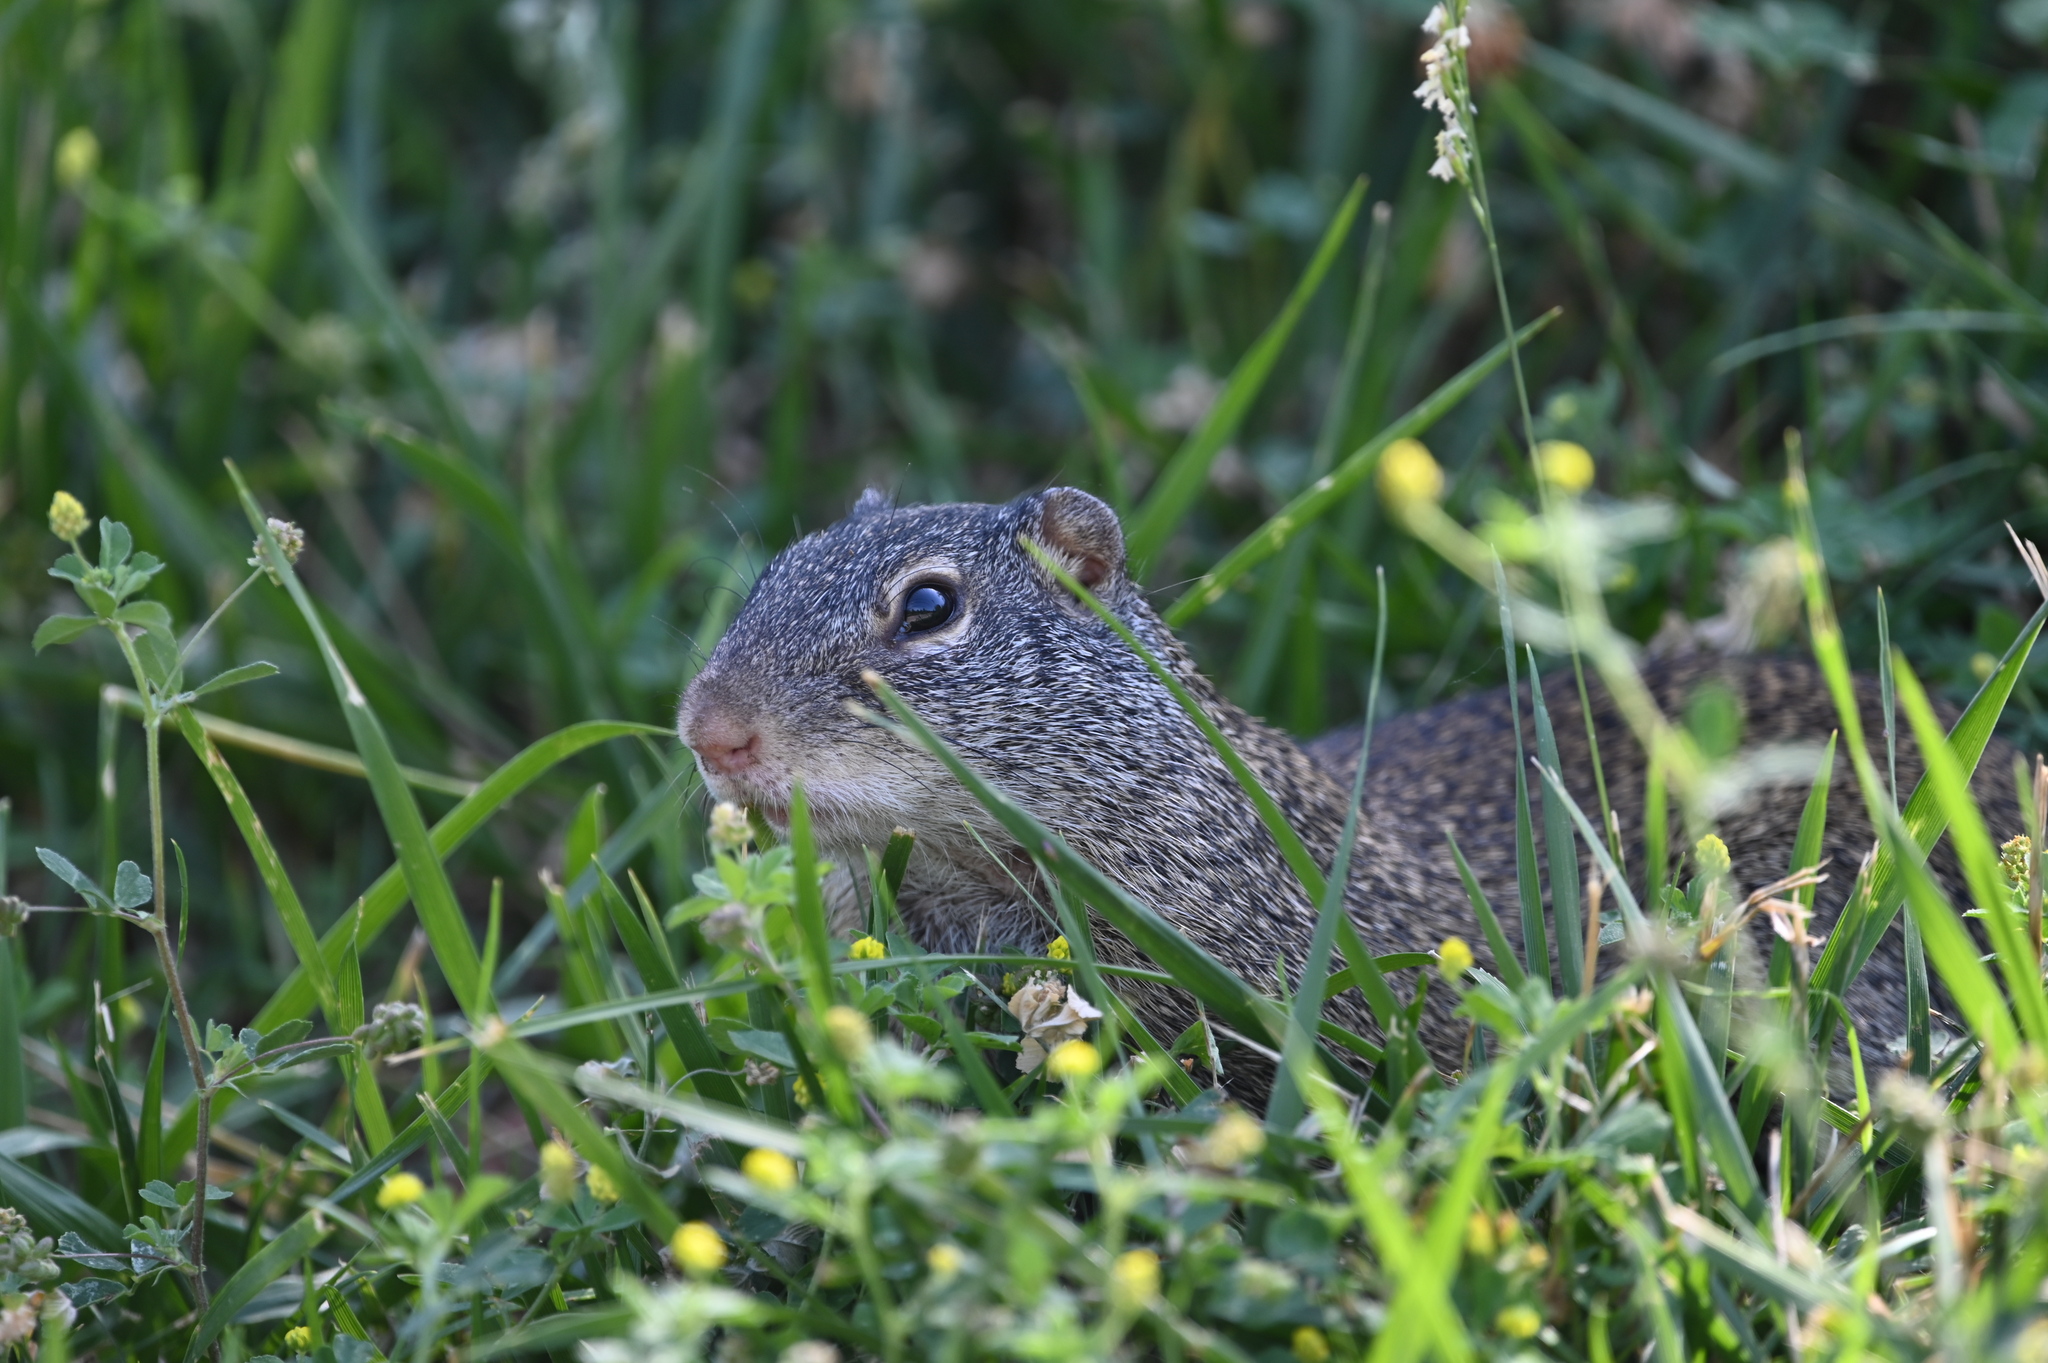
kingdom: Animalia
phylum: Chordata
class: Mammalia
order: Rodentia
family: Sciuridae
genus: Poliocitellus
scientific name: Poliocitellus franklinii
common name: Franklin's ground squirrel
